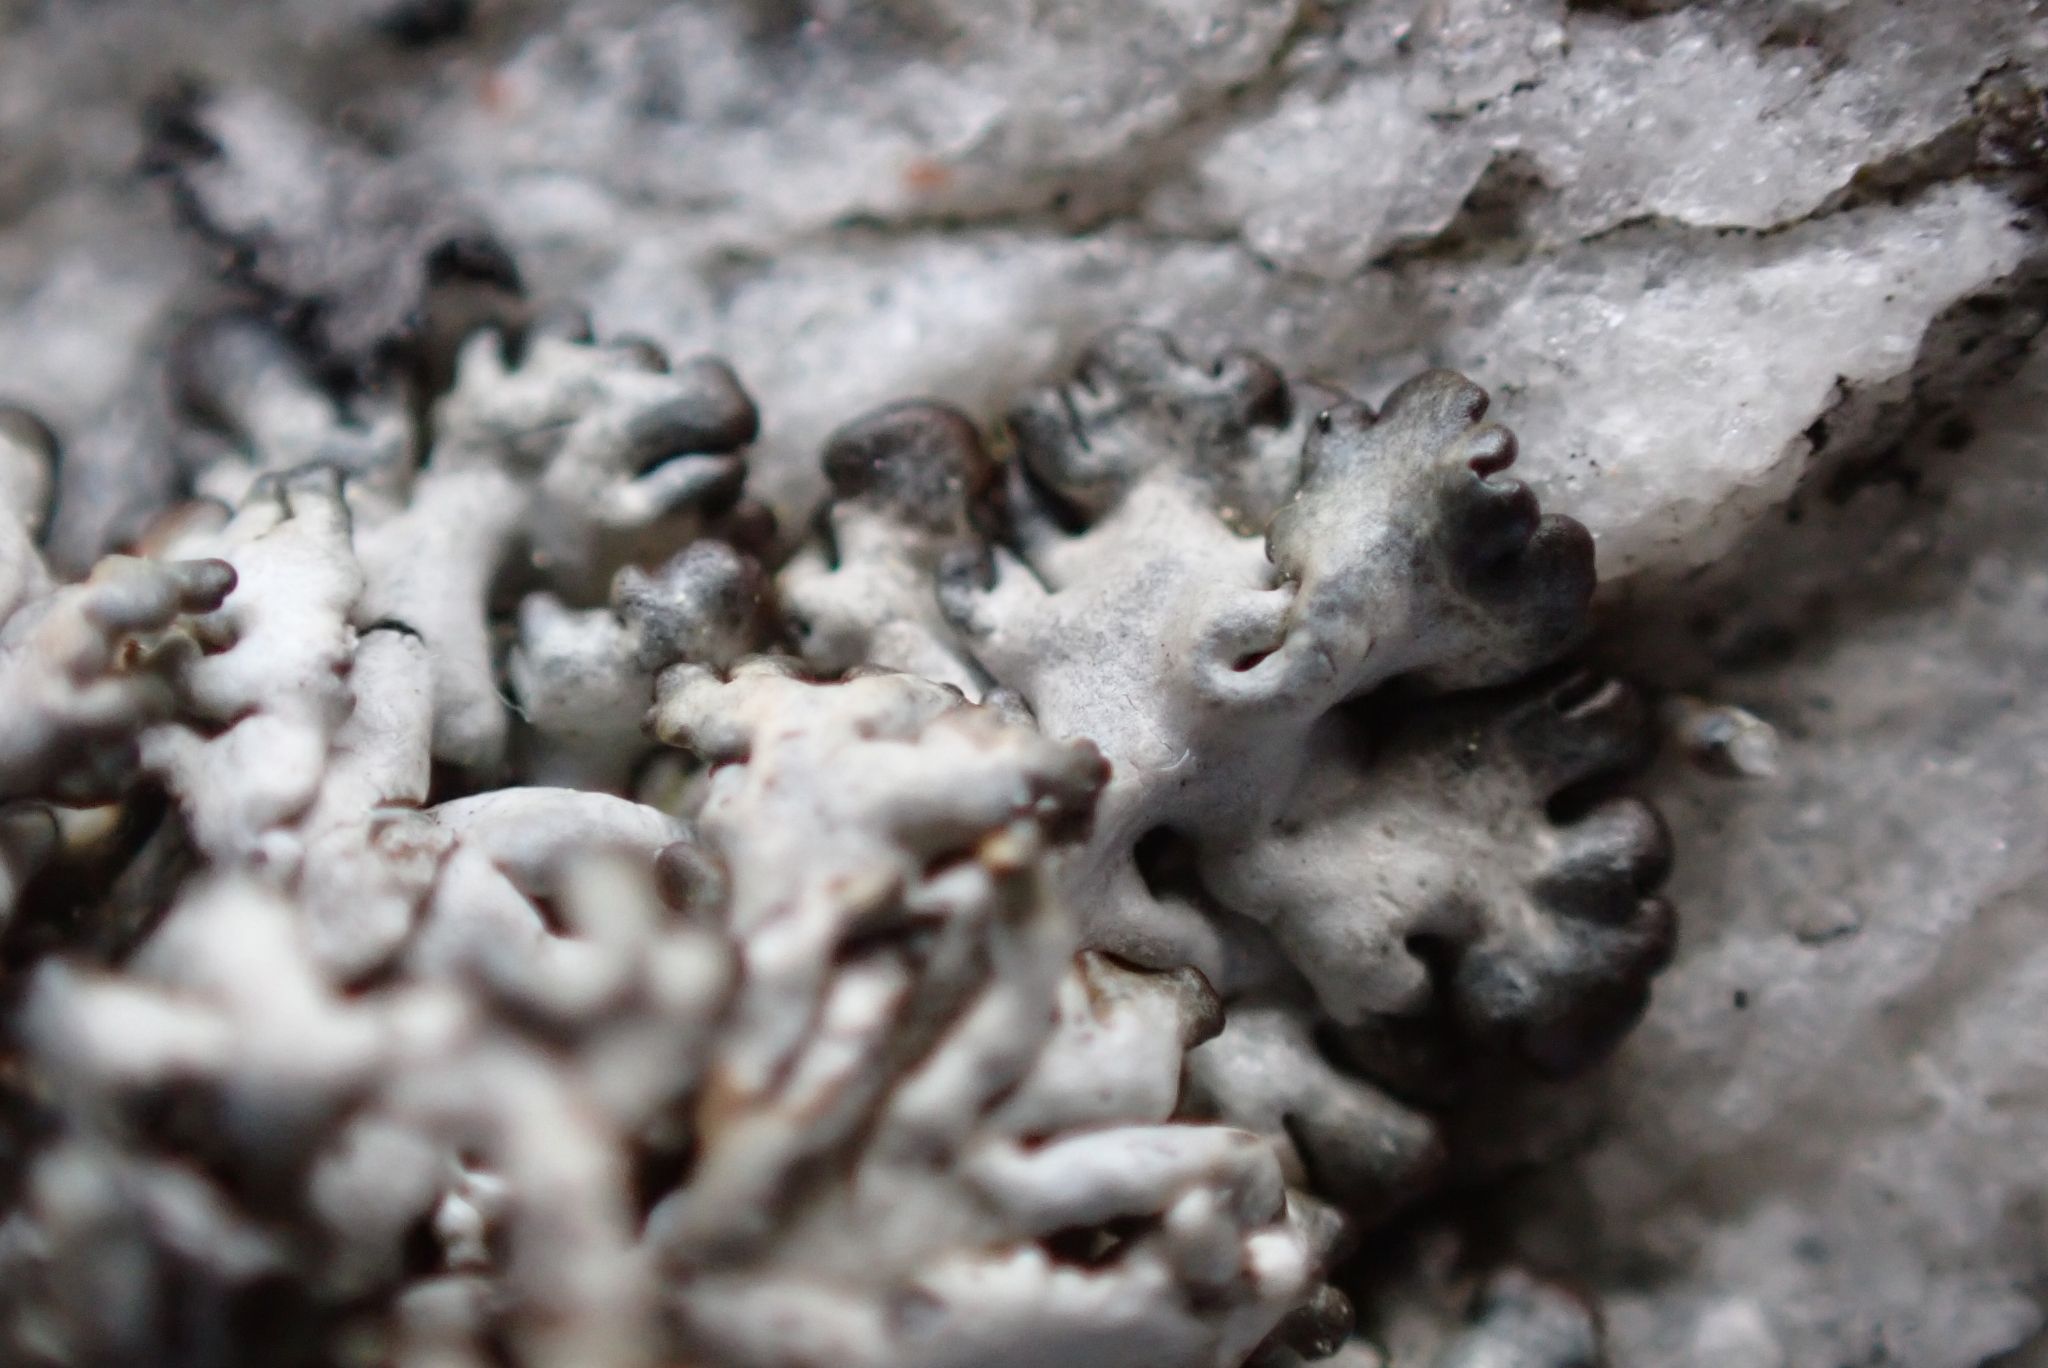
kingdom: Fungi
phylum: Ascomycota
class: Lecanoromycetes
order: Lecanorales
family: Parmeliaceae
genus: Brodoa
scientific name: Brodoa intestiniformis
